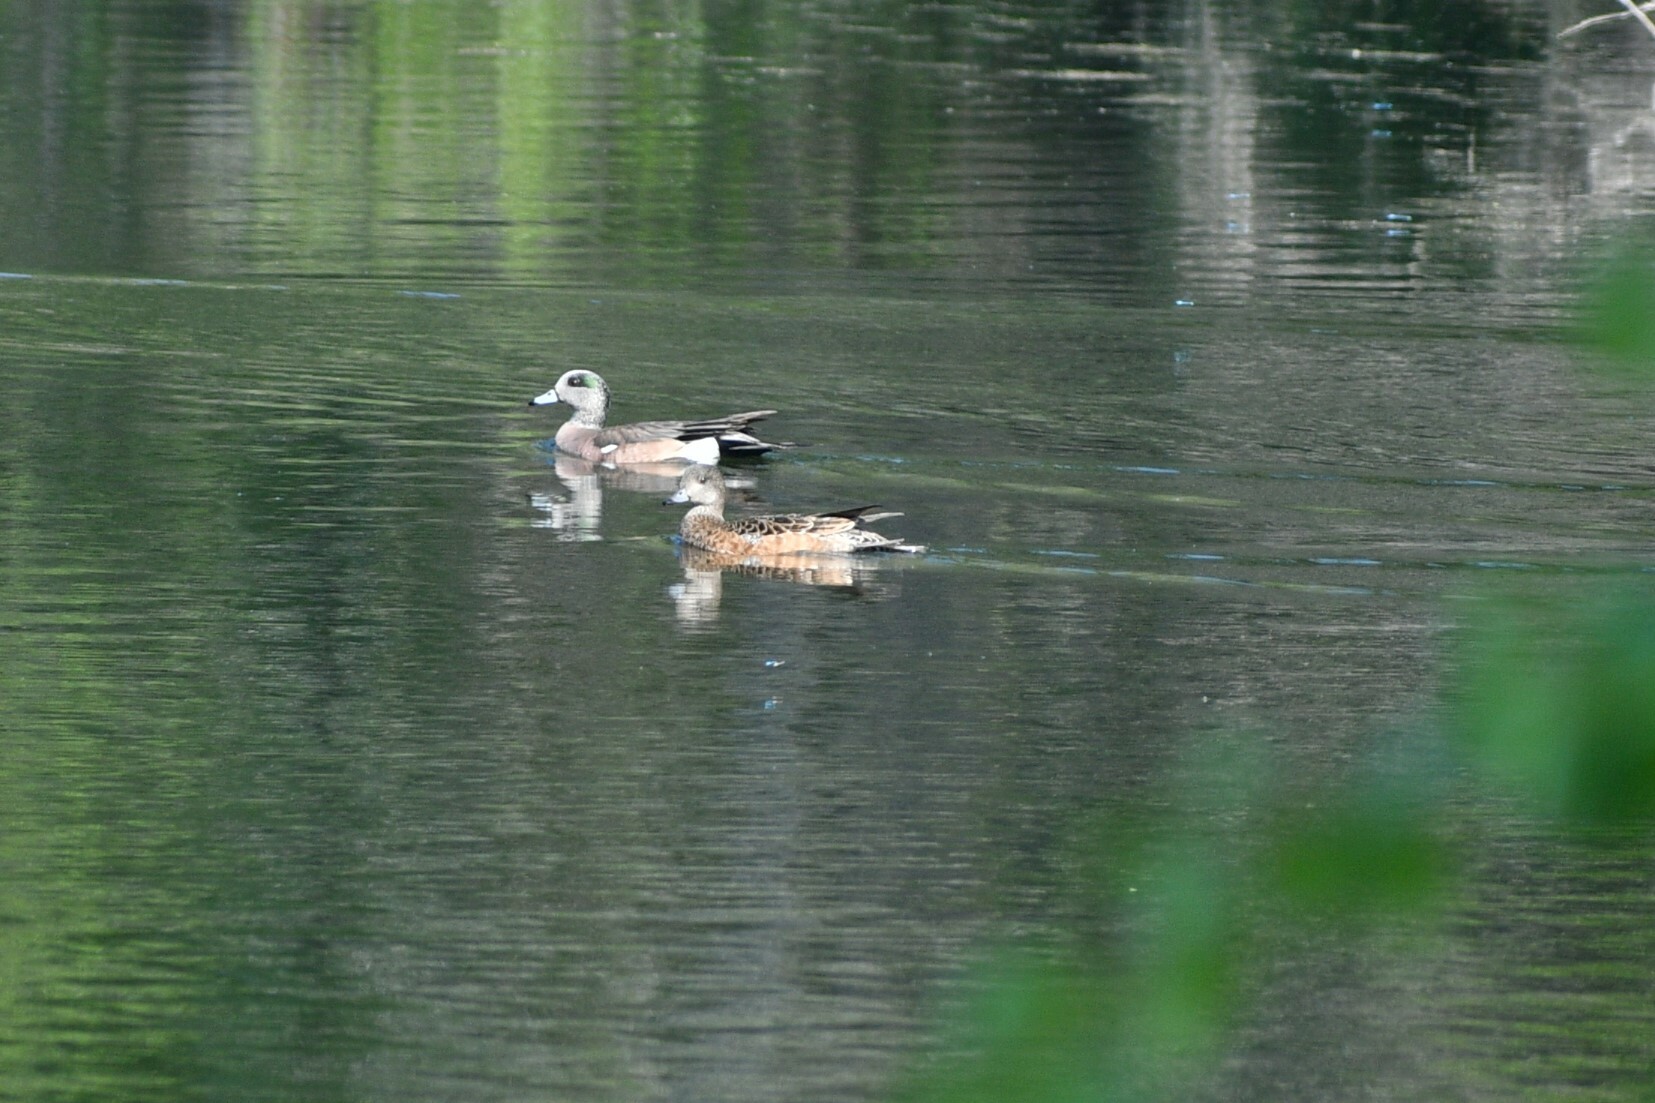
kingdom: Animalia
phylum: Chordata
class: Aves
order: Anseriformes
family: Anatidae
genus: Mareca
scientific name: Mareca americana
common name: American wigeon
